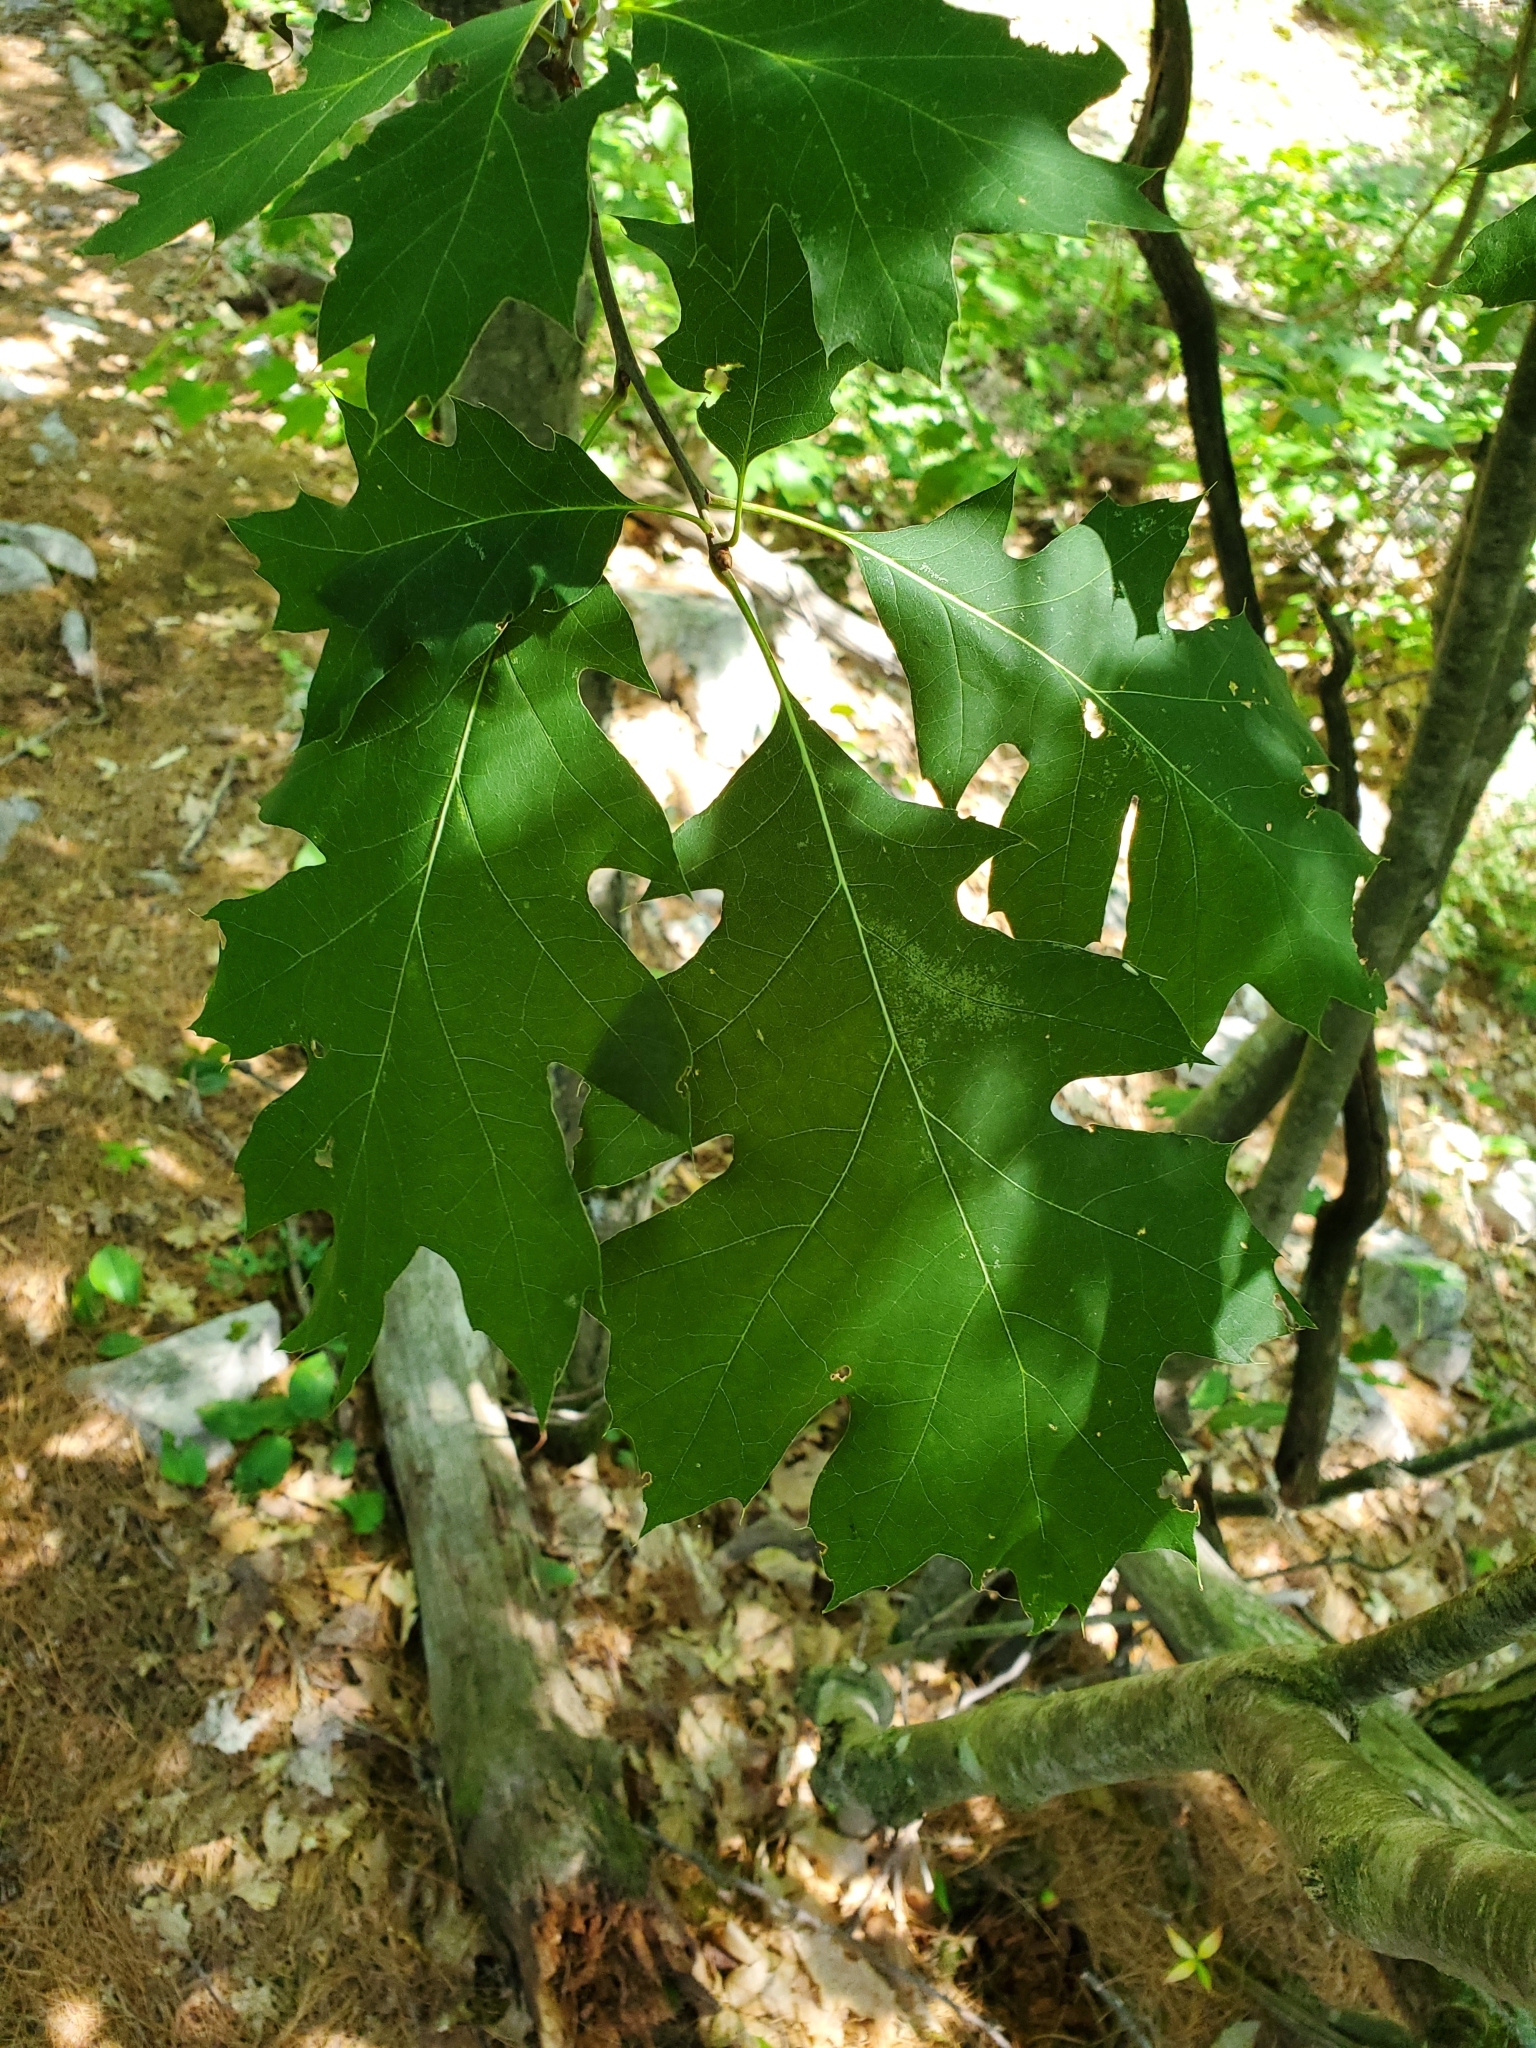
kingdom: Plantae
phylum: Tracheophyta
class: Magnoliopsida
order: Fagales
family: Fagaceae
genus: Quercus
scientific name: Quercus rubra
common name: Red oak
